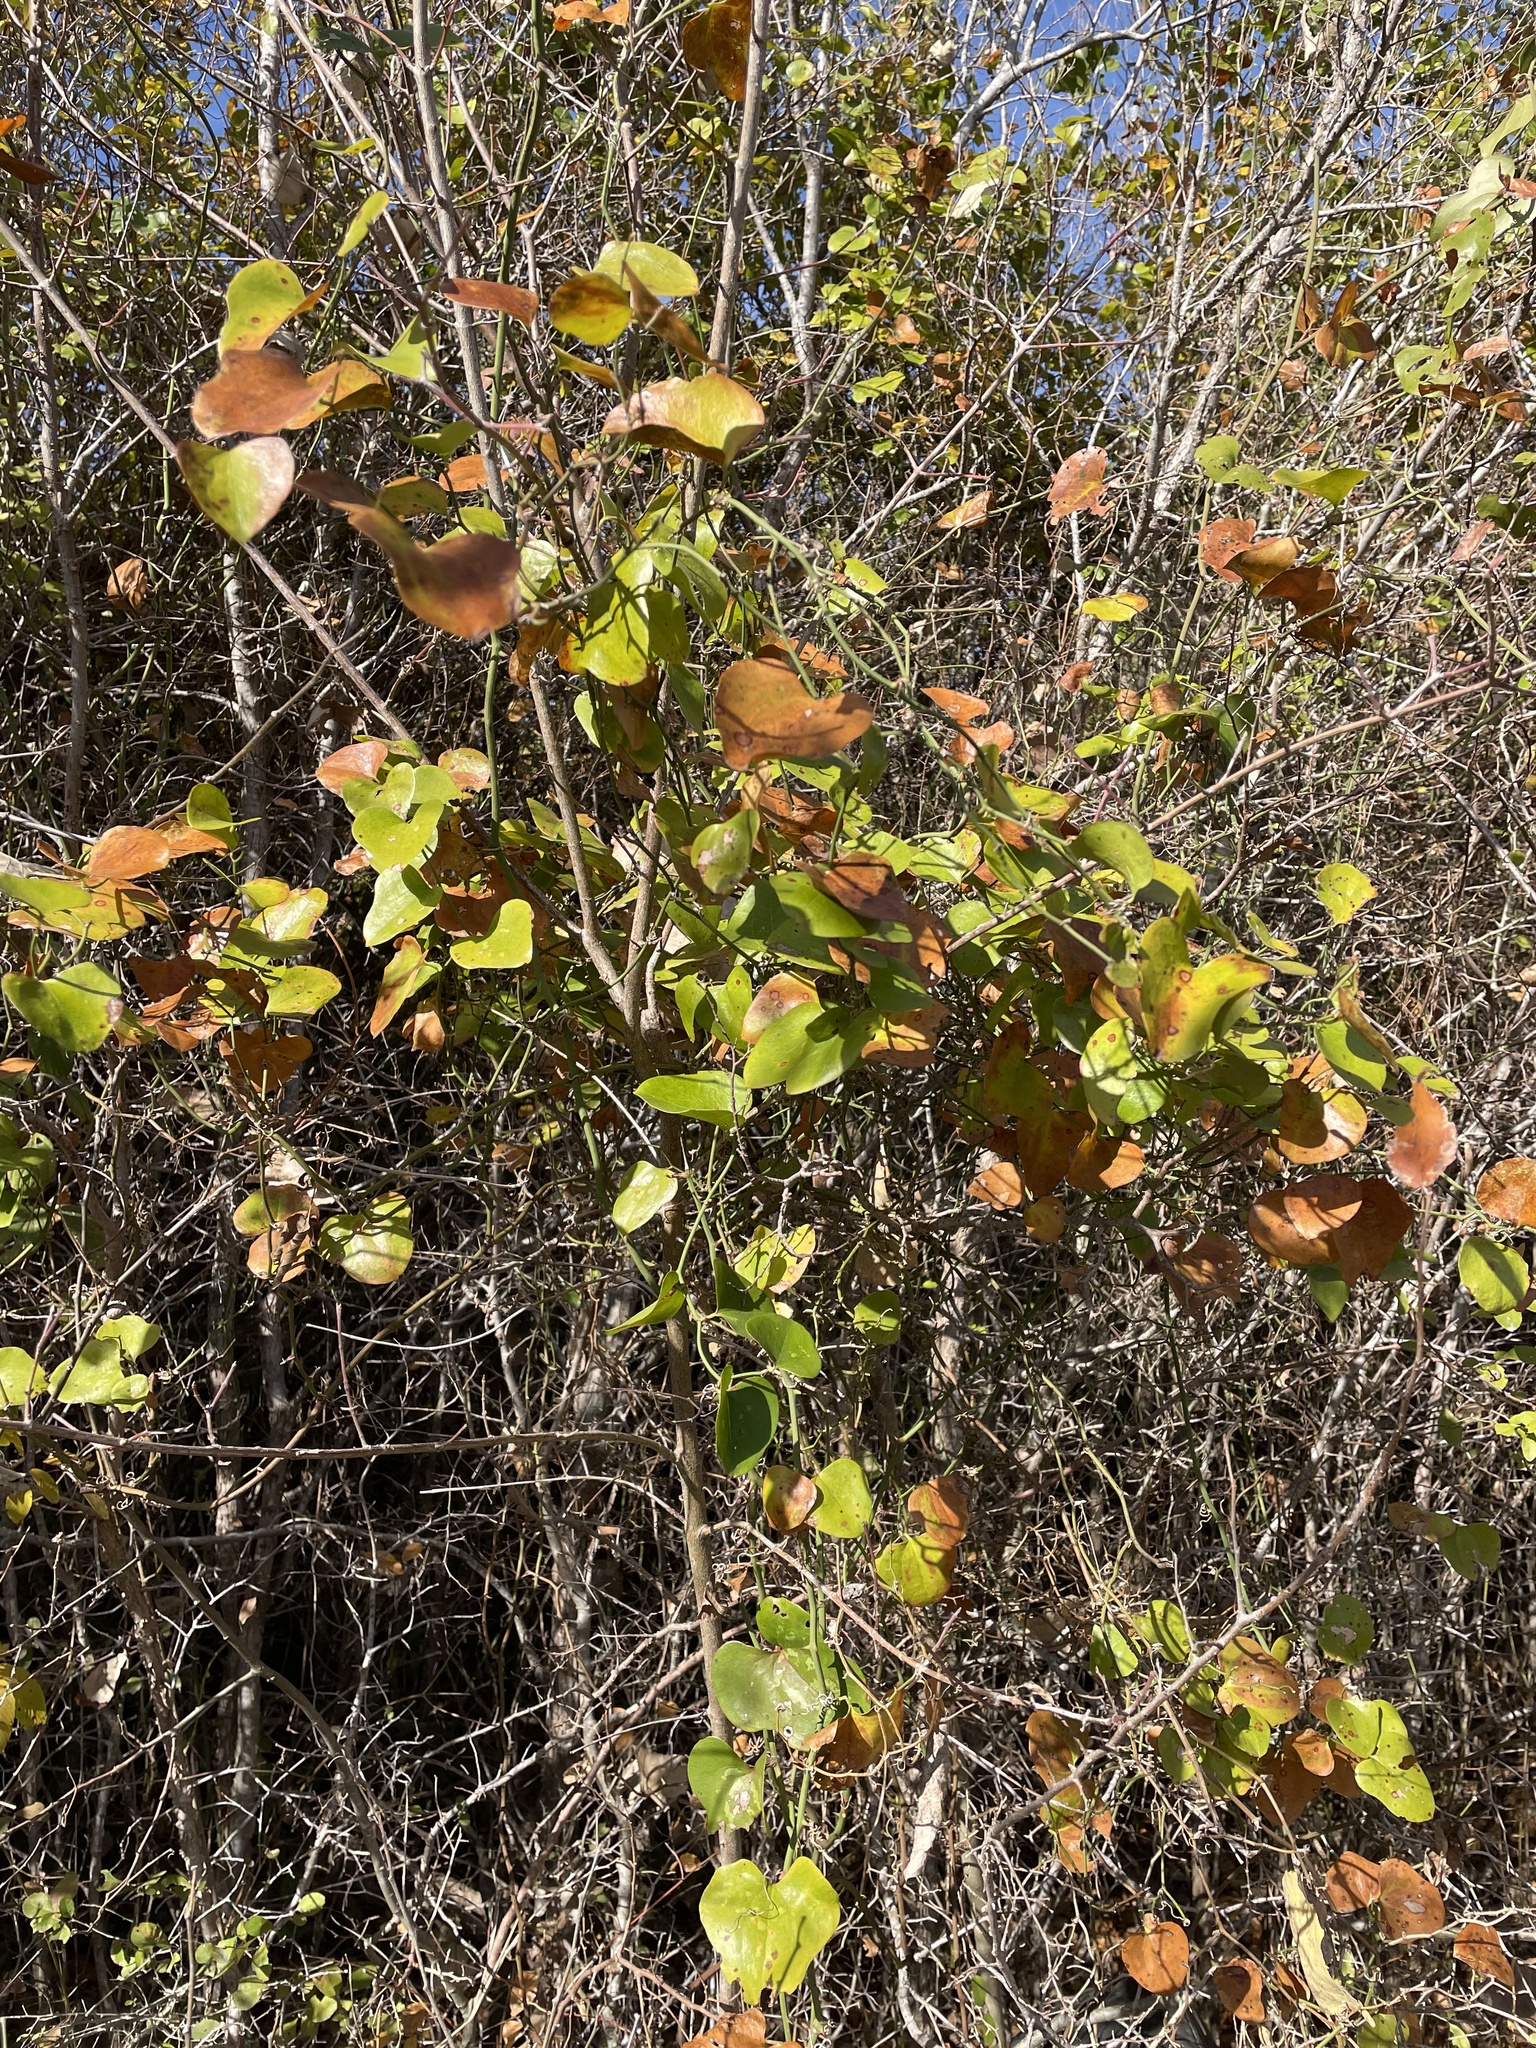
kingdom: Plantae
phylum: Tracheophyta
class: Liliopsida
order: Liliales
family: Smilacaceae
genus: Smilax
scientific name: Smilax bona-nox
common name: Catbrier
